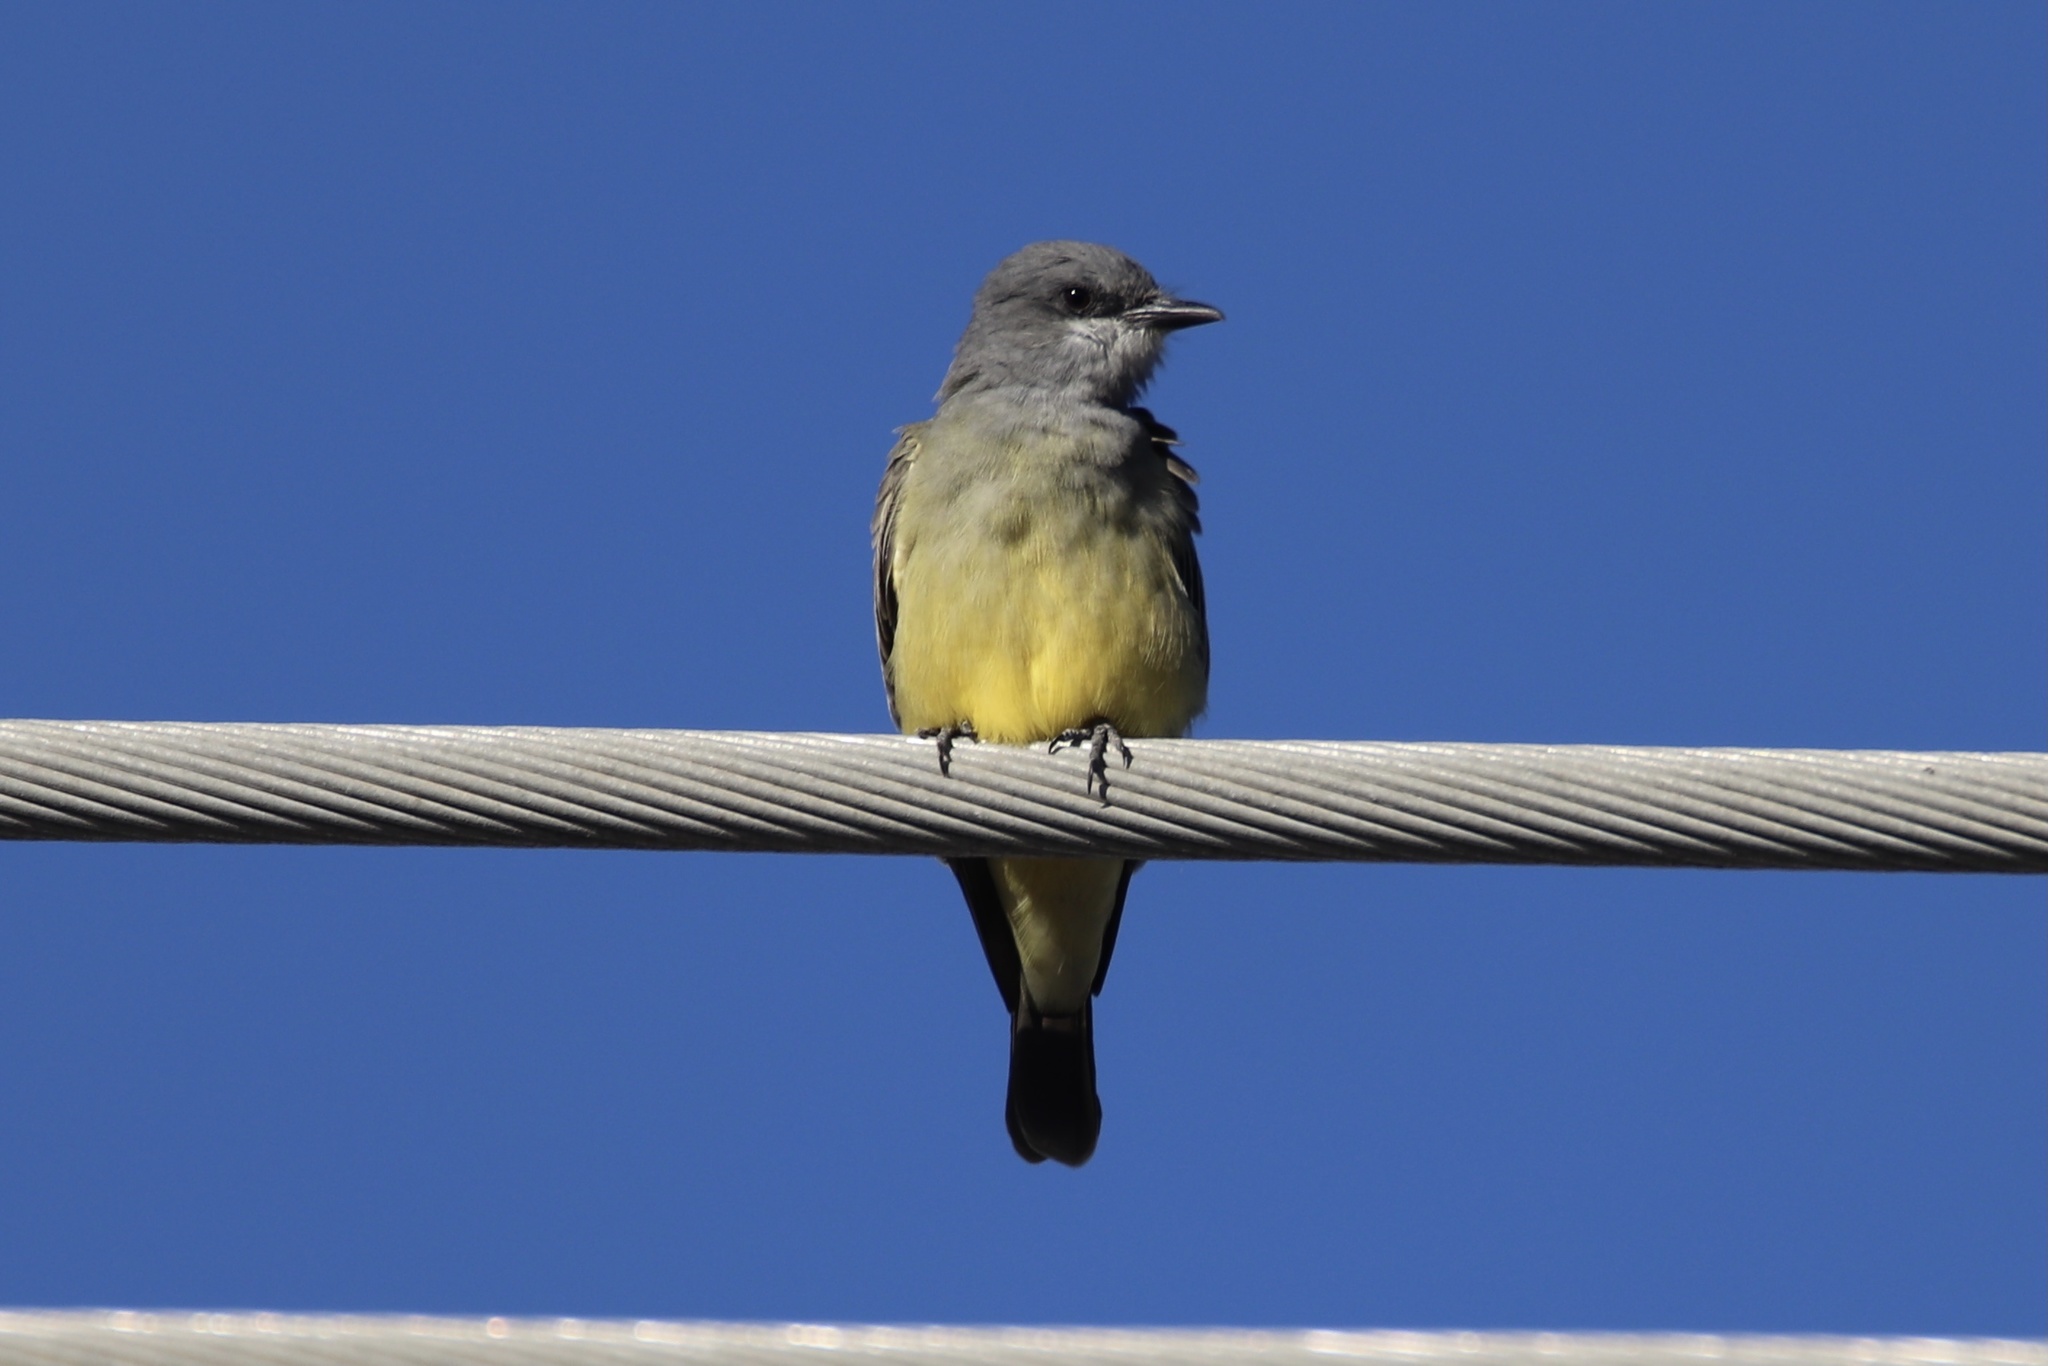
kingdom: Animalia
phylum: Chordata
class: Aves
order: Passeriformes
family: Tyrannidae
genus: Tyrannus
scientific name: Tyrannus vociferans
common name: Cassin's kingbird
